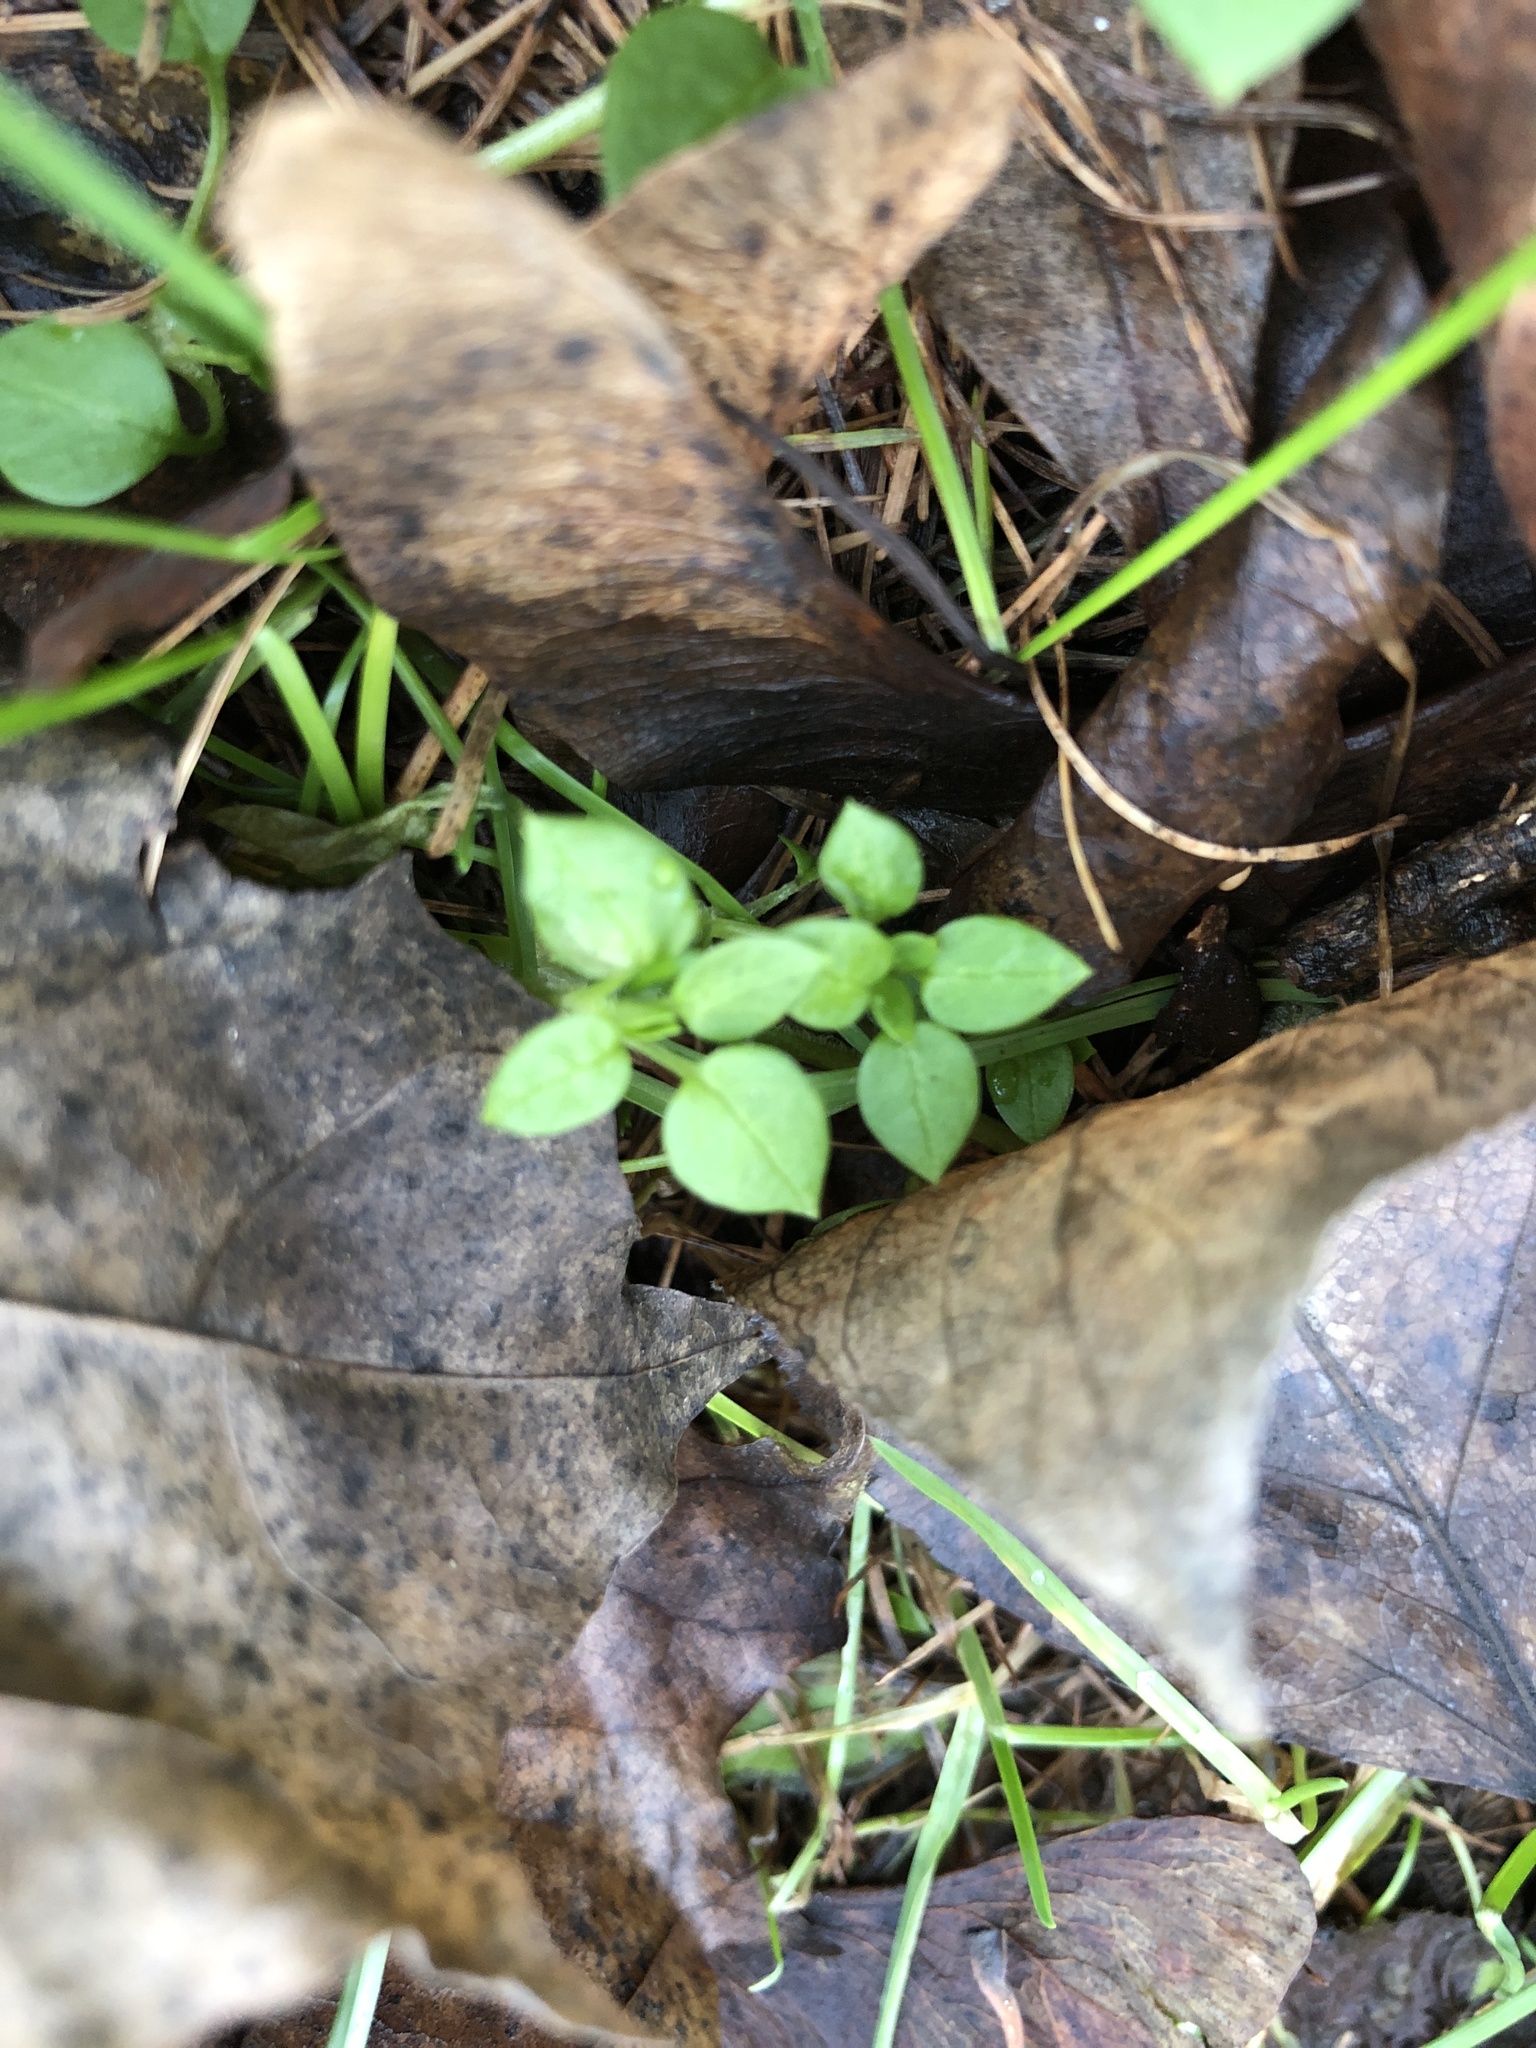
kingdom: Plantae
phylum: Tracheophyta
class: Magnoliopsida
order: Caryophyllales
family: Caryophyllaceae
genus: Stellaria
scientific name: Stellaria media
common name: Common chickweed
